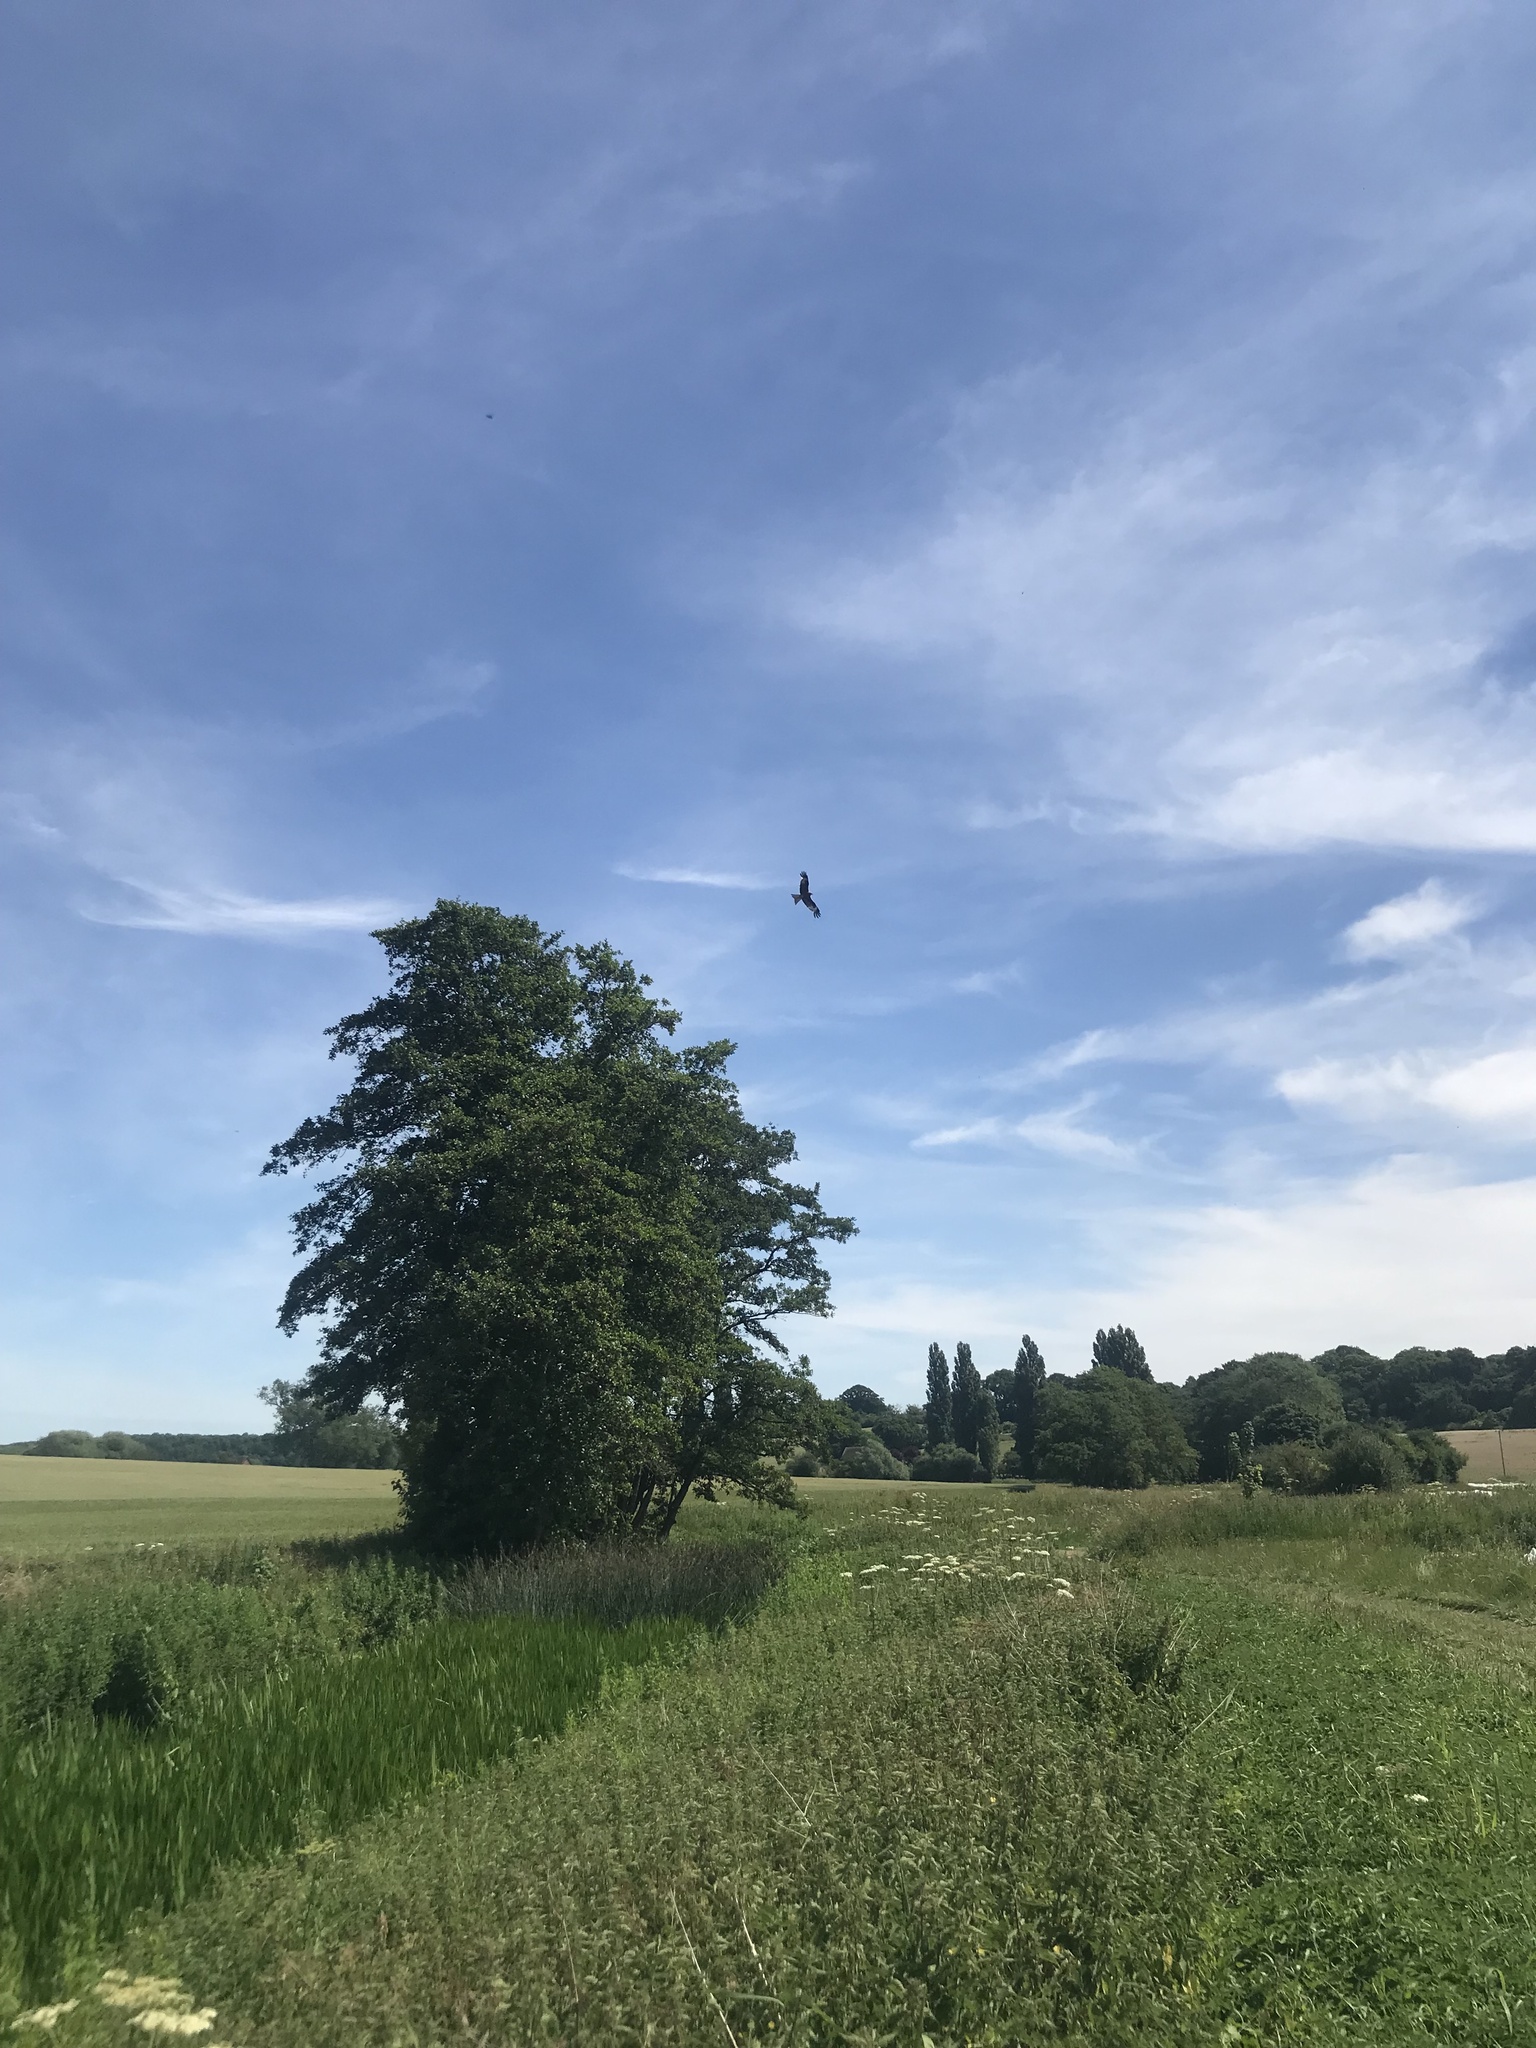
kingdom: Animalia
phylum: Chordata
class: Aves
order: Accipitriformes
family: Accipitridae
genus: Milvus
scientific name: Milvus milvus
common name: Red kite
